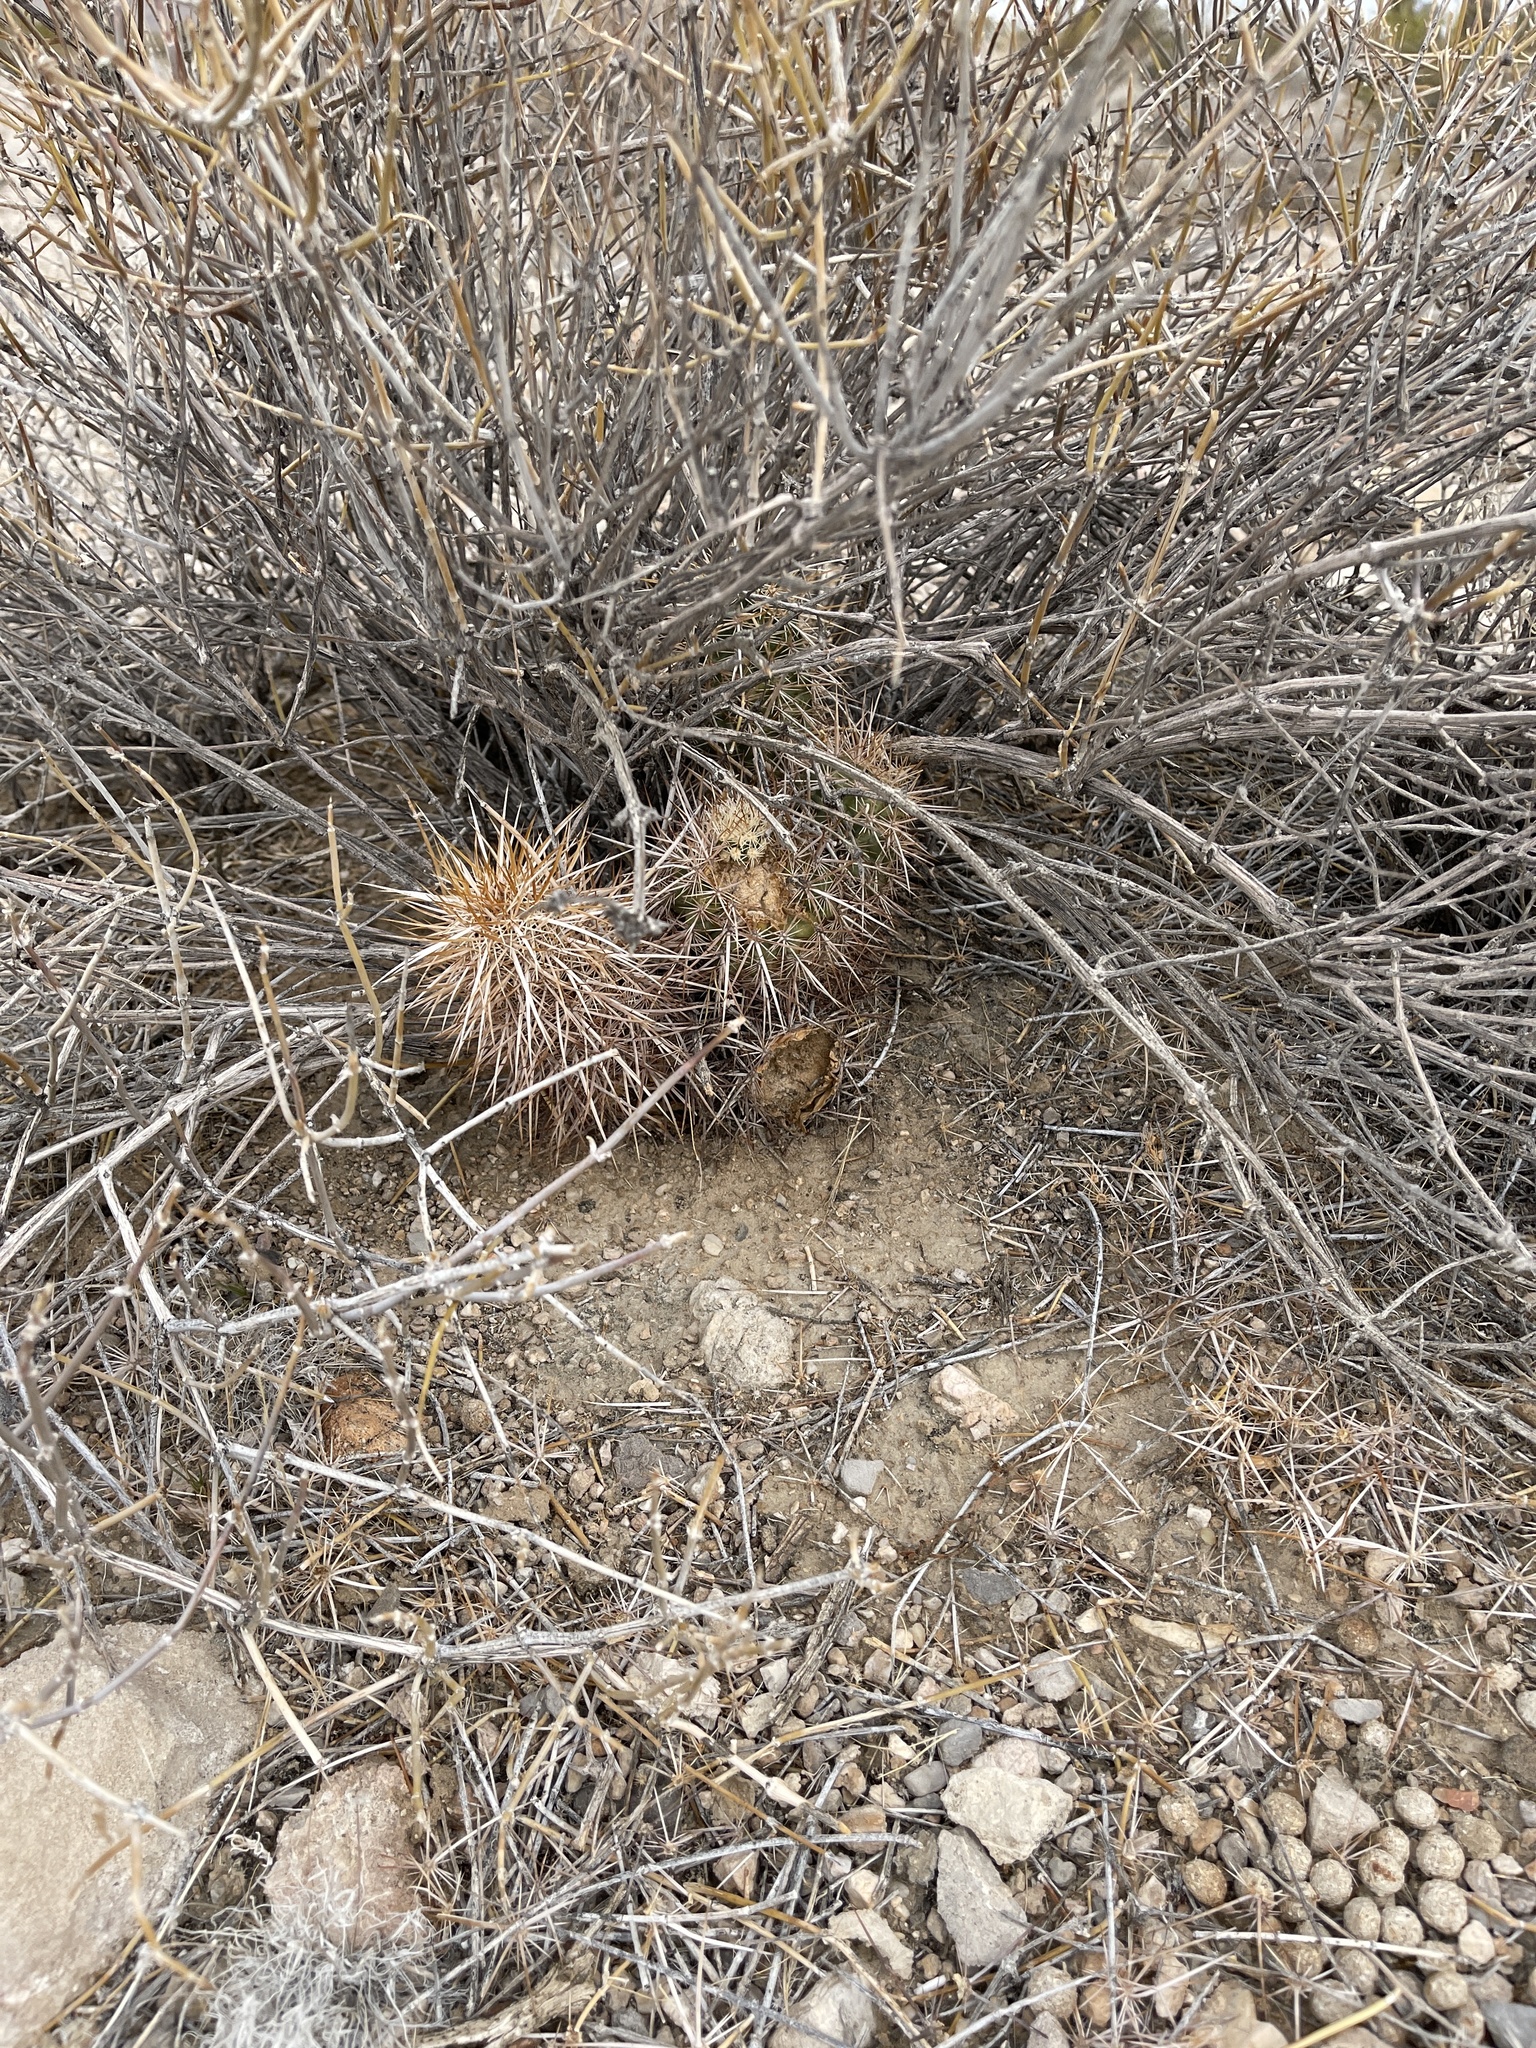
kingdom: Plantae
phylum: Tracheophyta
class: Magnoliopsida
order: Caryophyllales
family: Cactaceae
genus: Echinocereus
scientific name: Echinocereus engelmannii
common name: Engelmann's hedgehog cactus
